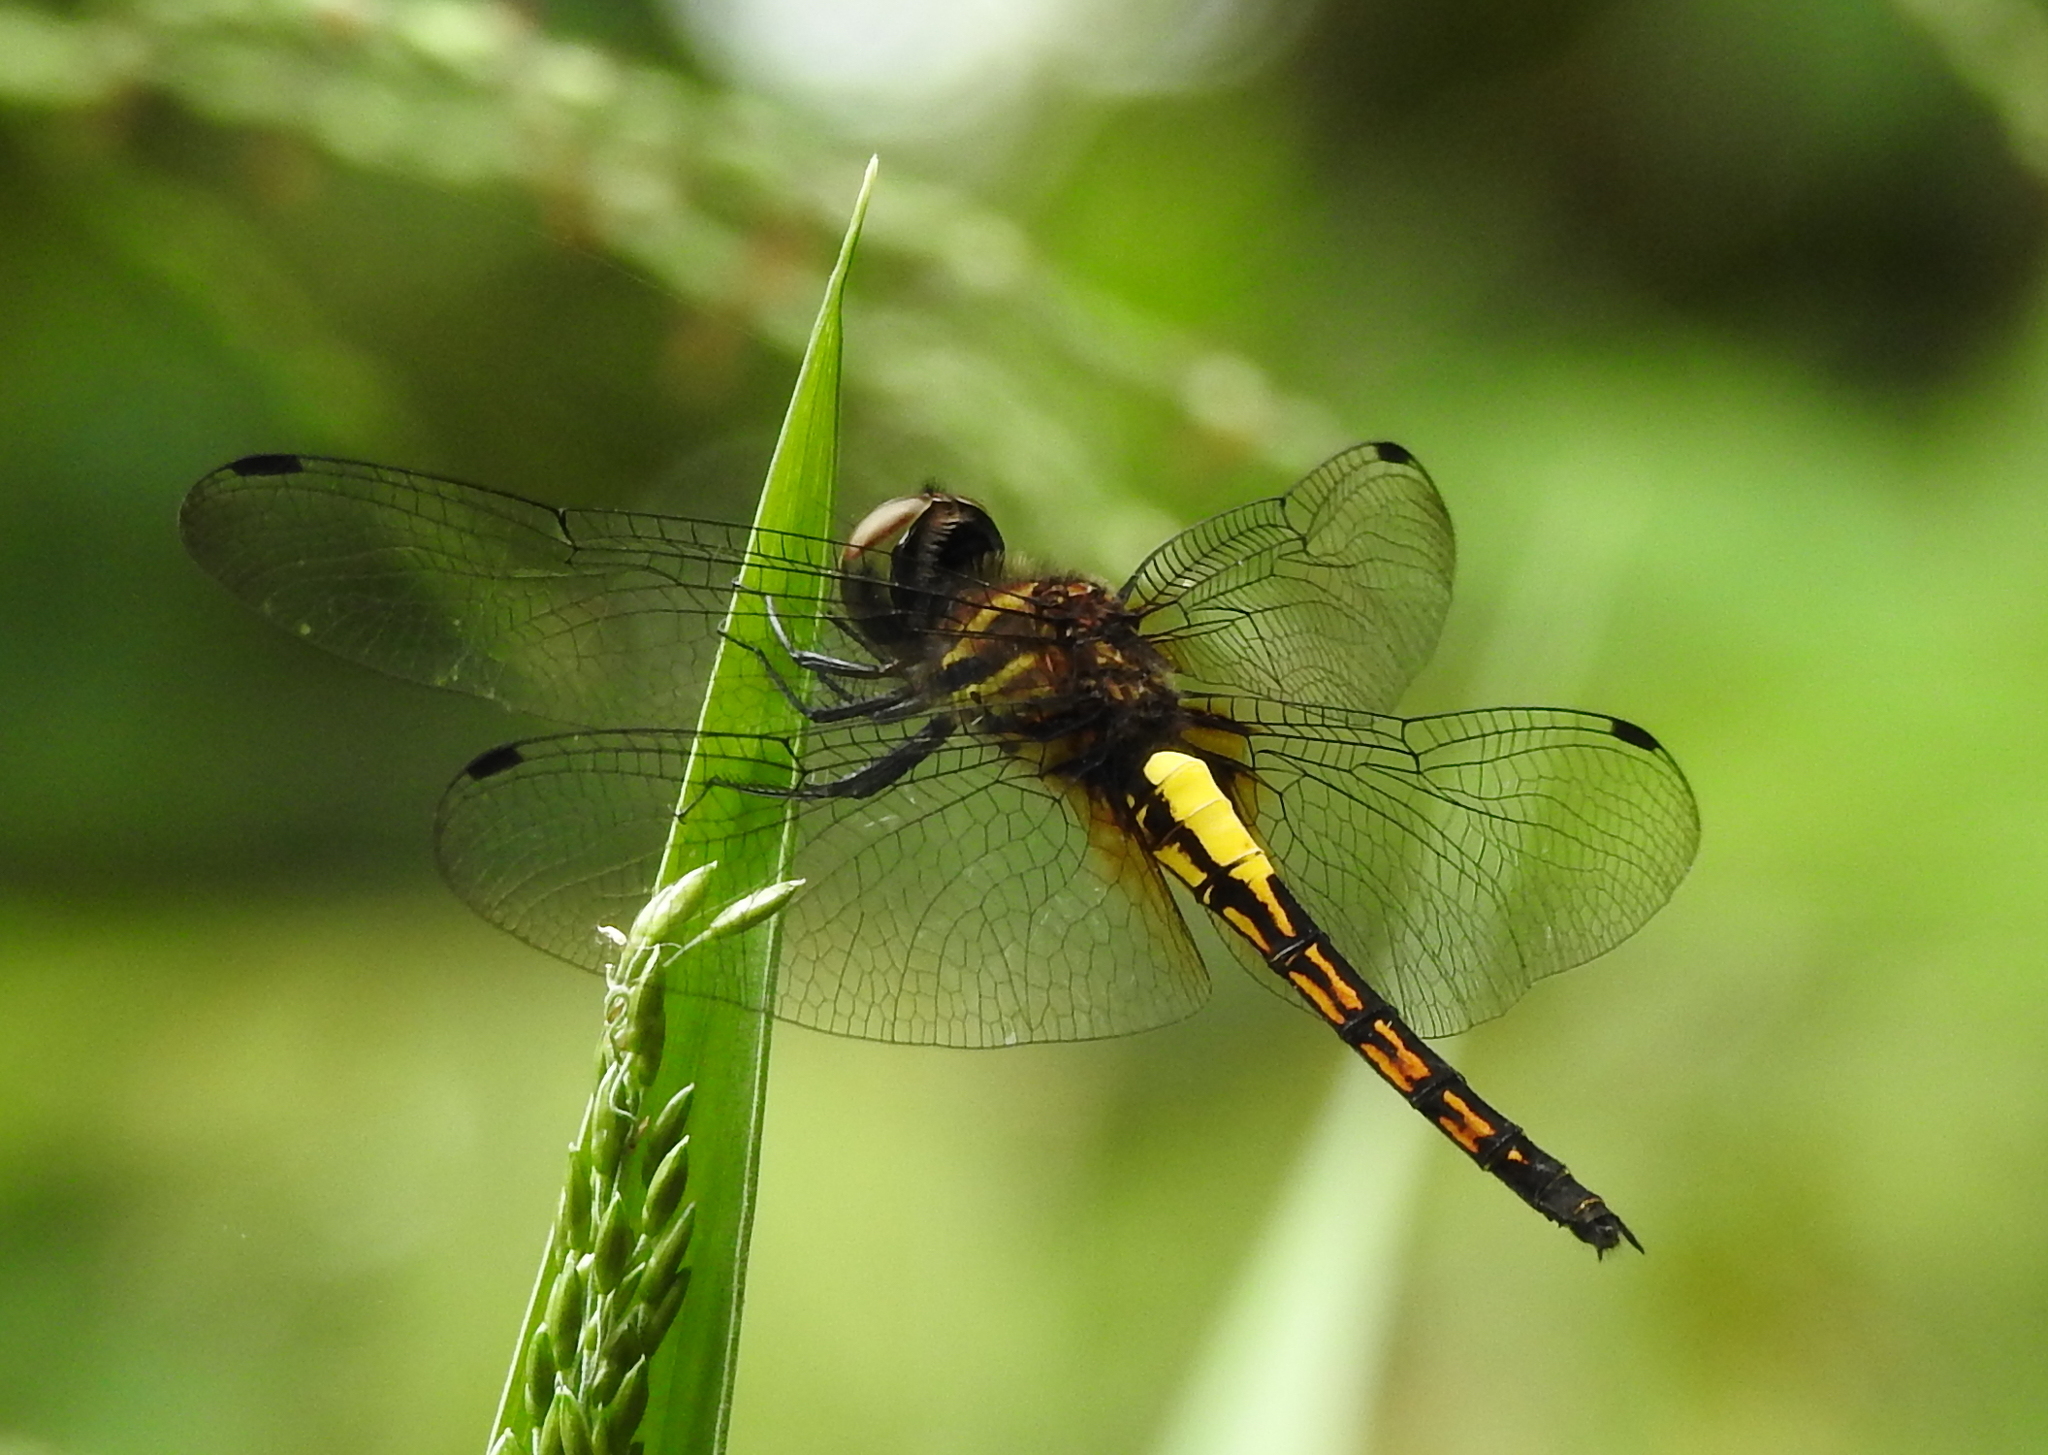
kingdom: Animalia
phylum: Arthropoda
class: Insecta
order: Odonata
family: Libellulidae
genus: Pseudothemis
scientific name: Pseudothemis jorina
